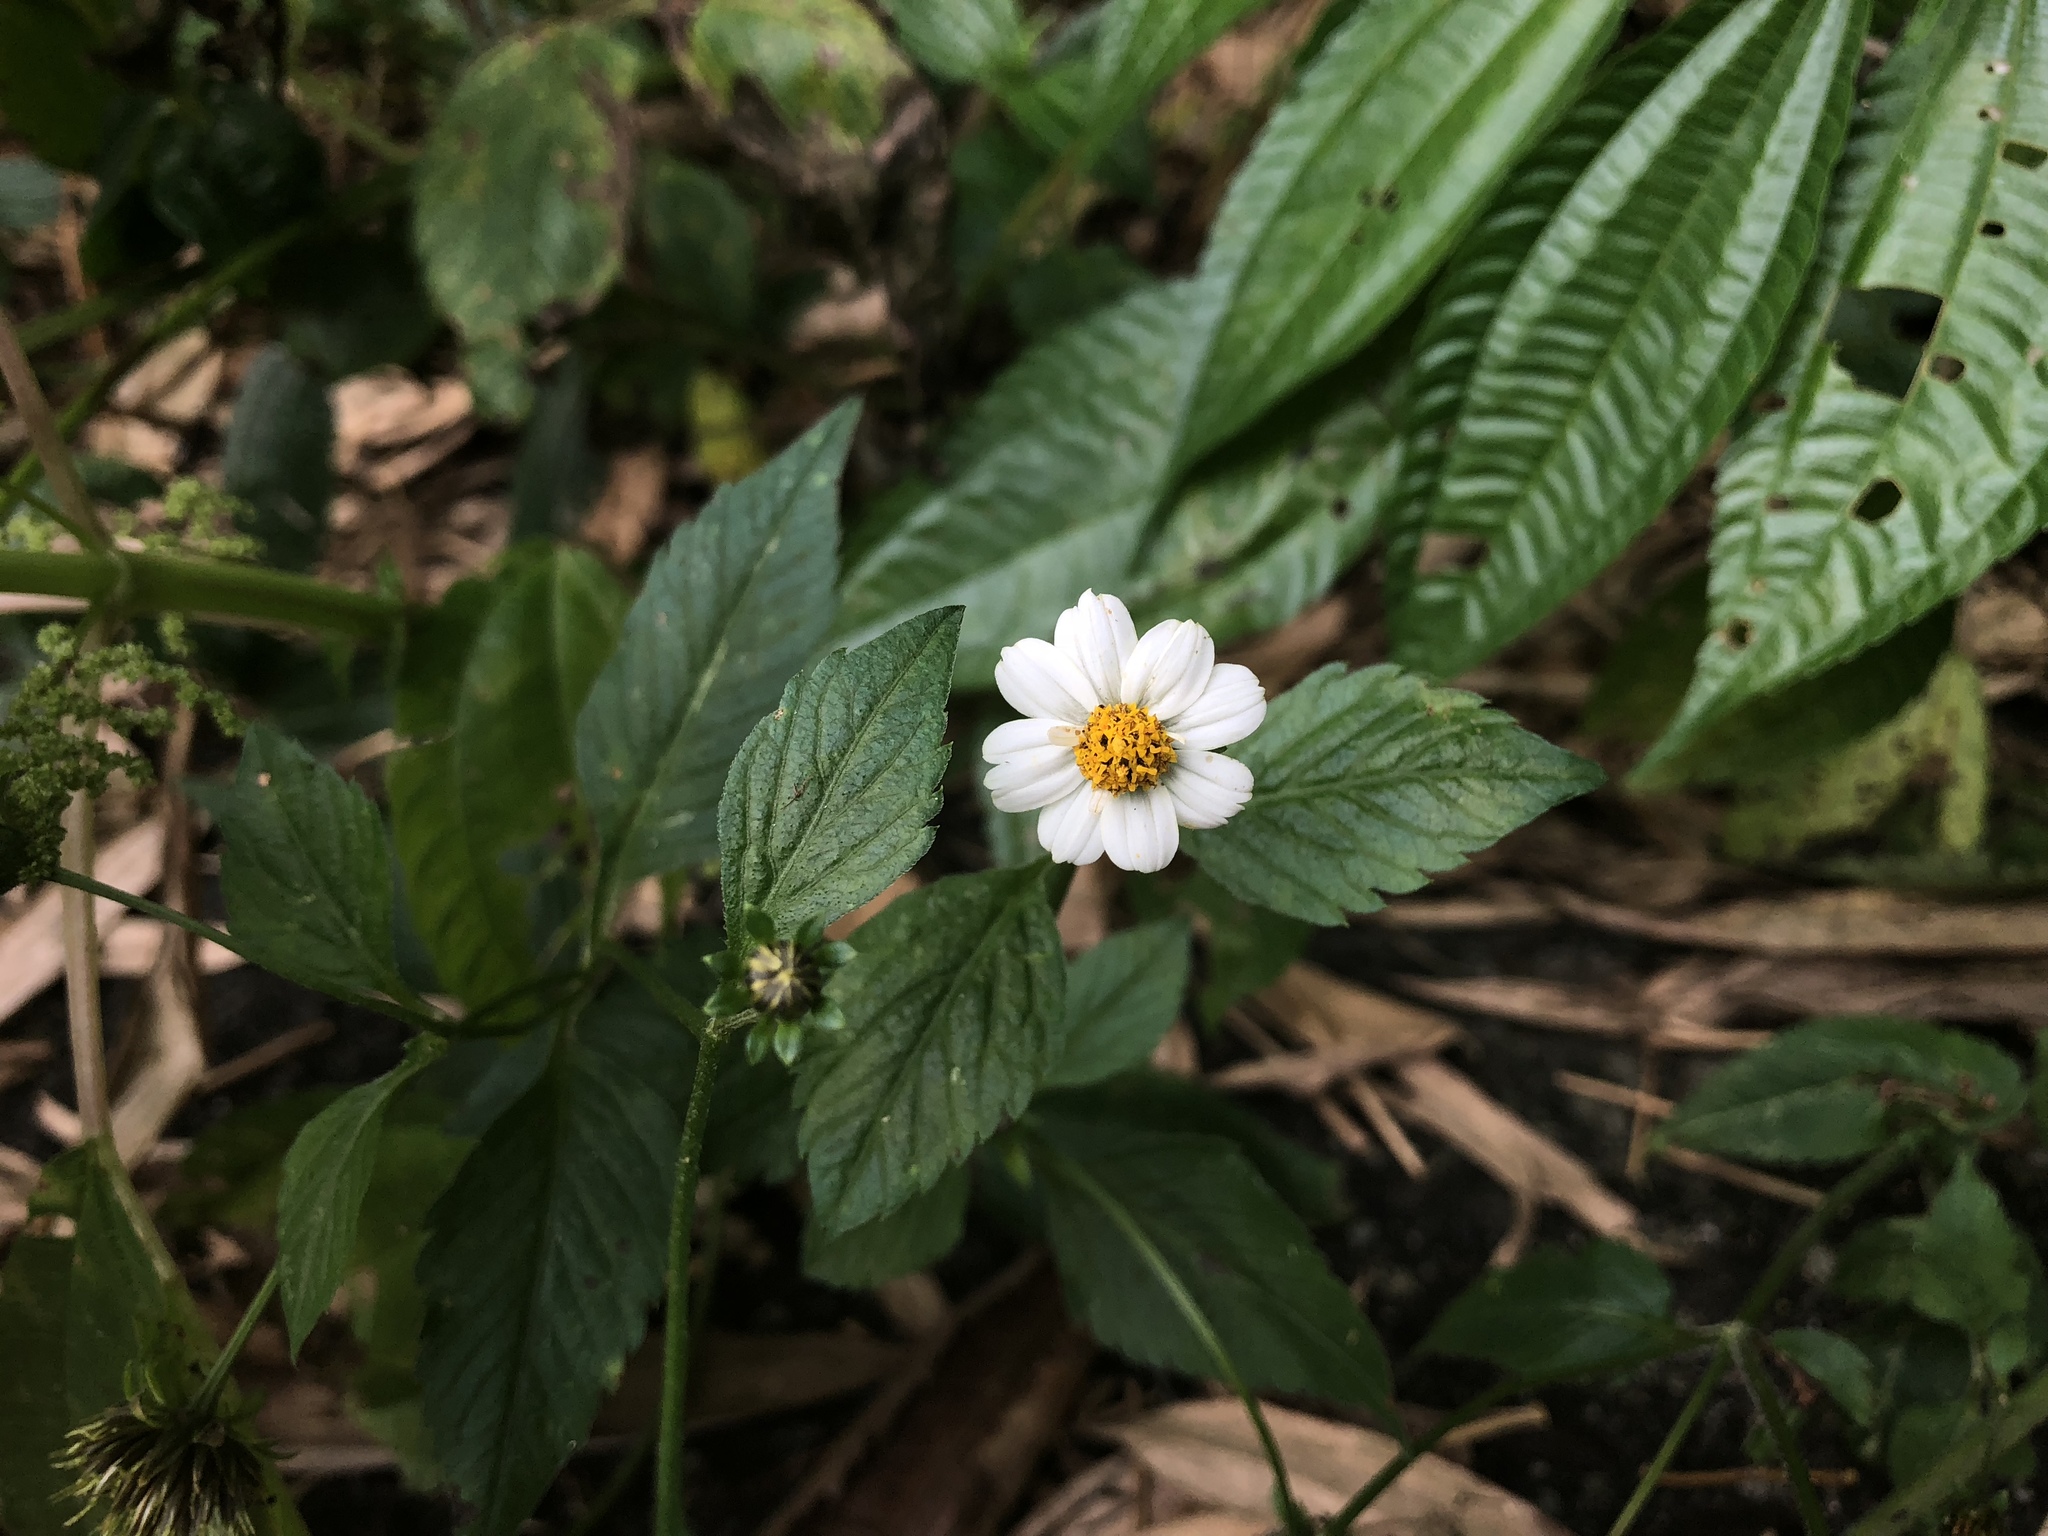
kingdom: Plantae
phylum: Tracheophyta
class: Magnoliopsida
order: Asterales
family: Asteraceae
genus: Bidens
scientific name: Bidens pilosa
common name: Black-jack
